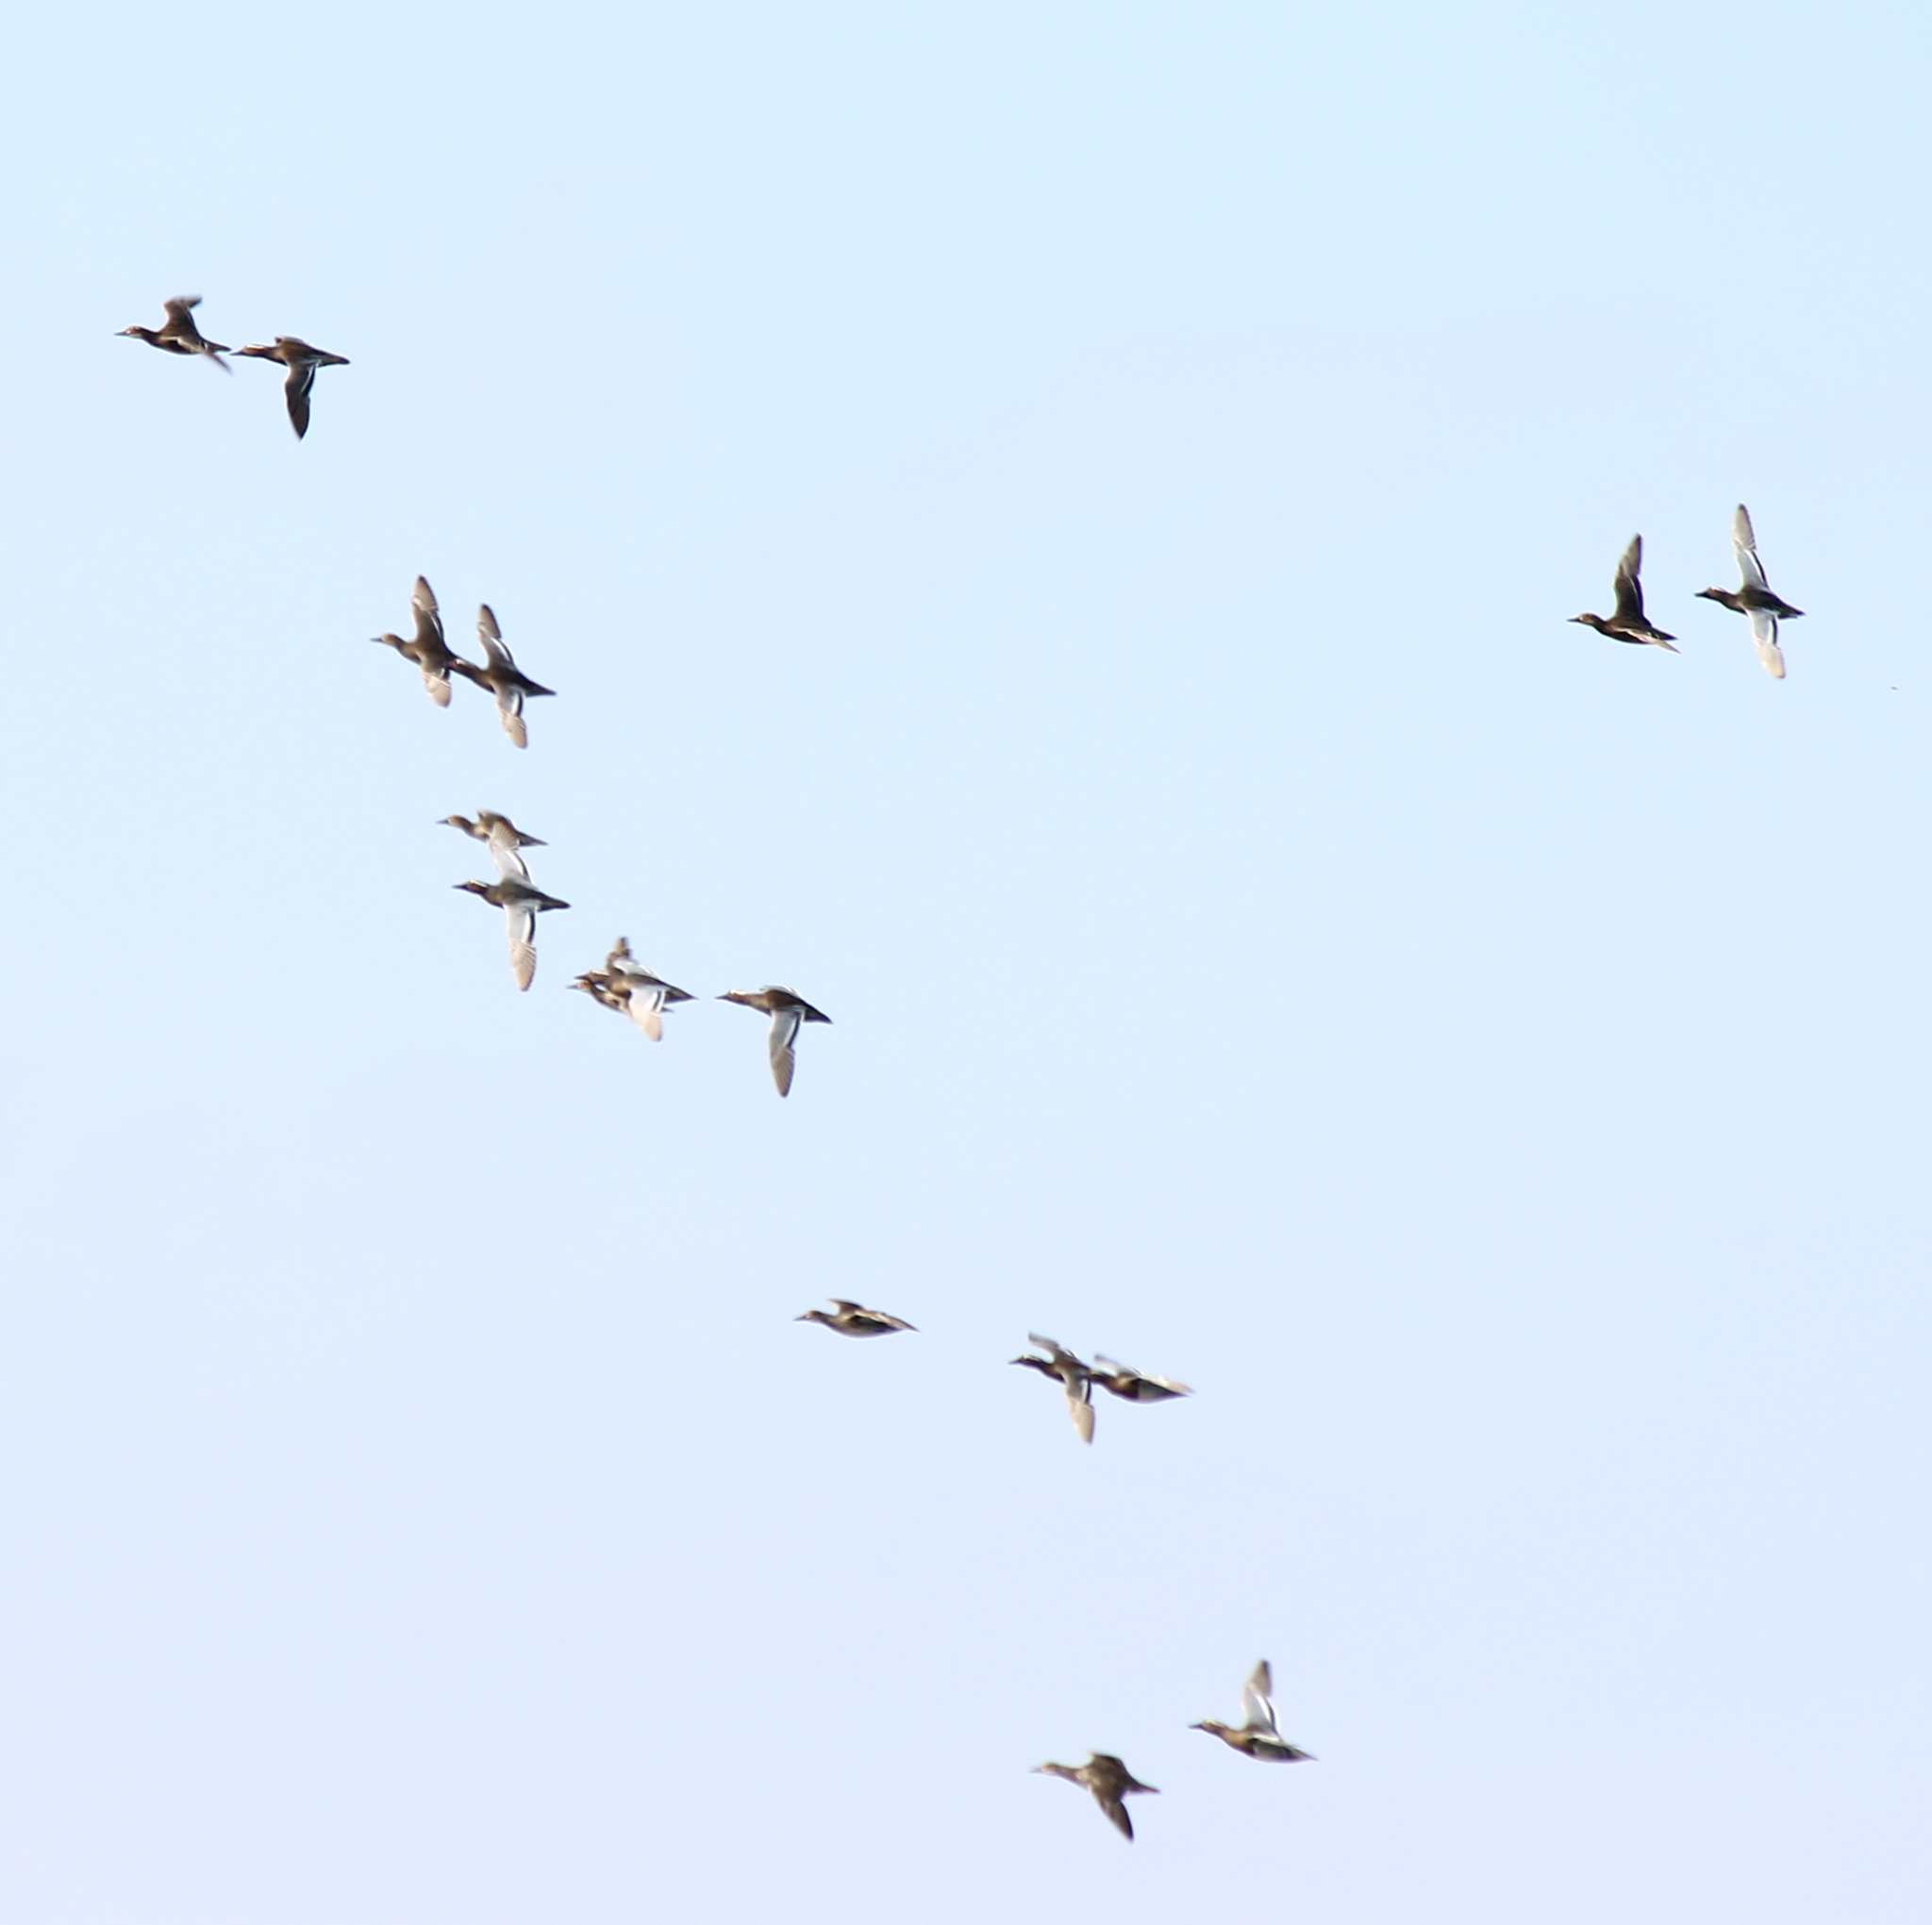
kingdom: Animalia
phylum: Chordata
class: Aves
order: Anseriformes
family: Anatidae
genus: Spatula
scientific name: Spatula querquedula
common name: Garganey
